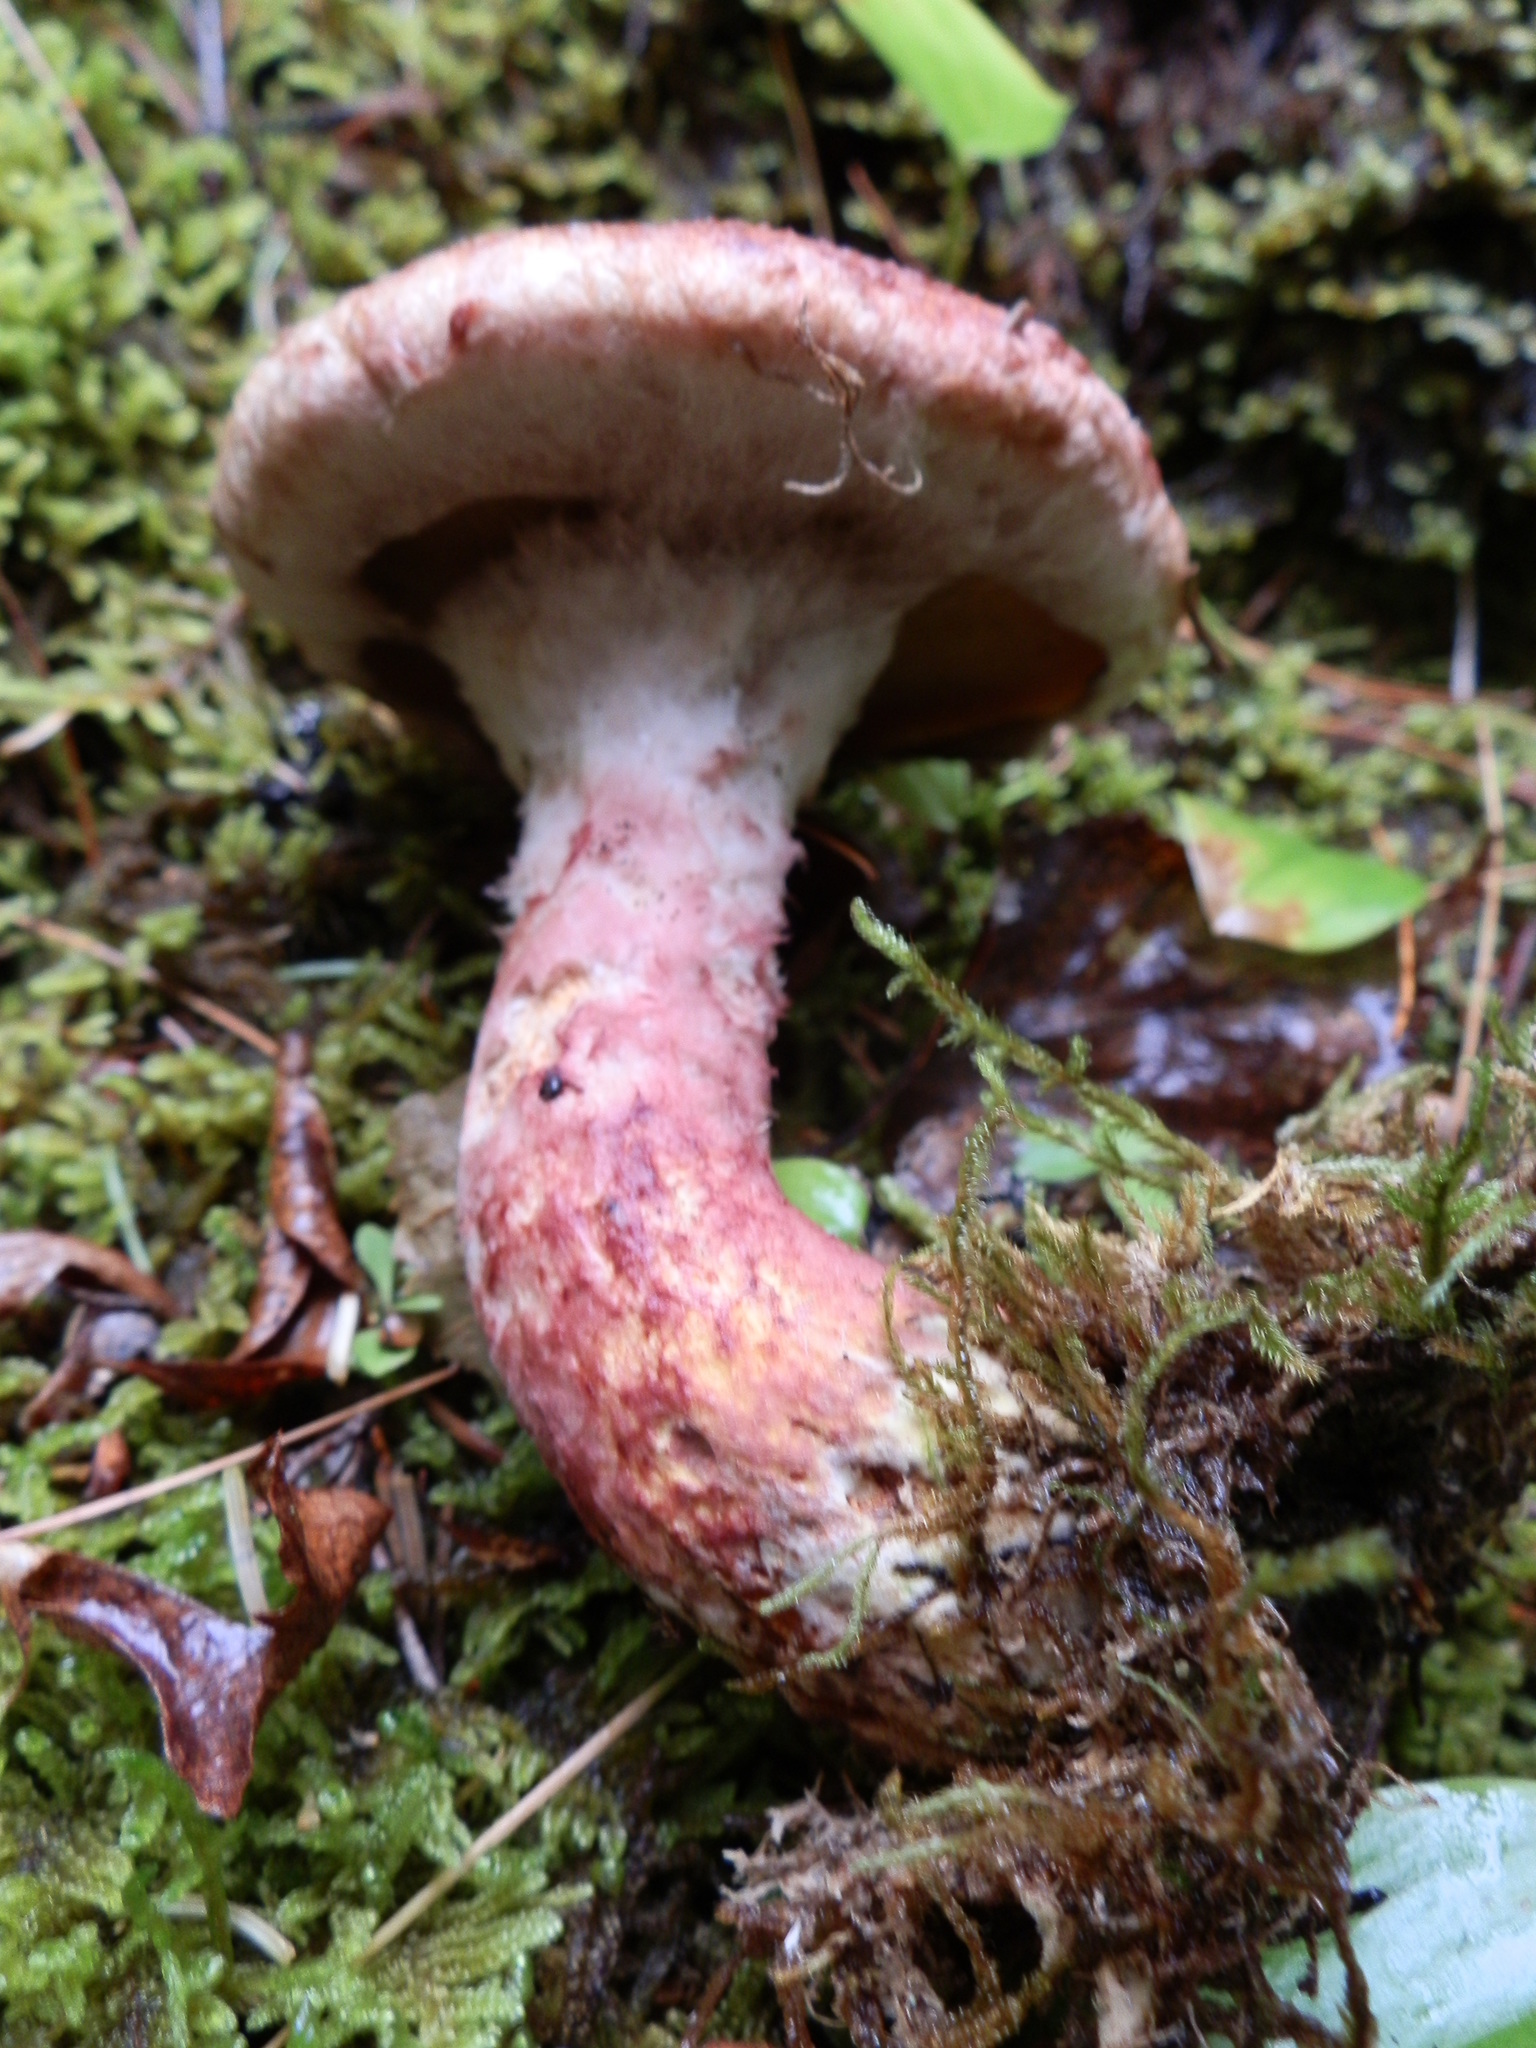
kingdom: Fungi
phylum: Basidiomycota
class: Agaricomycetes
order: Boletales
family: Suillaceae
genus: Suillus
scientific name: Suillus spraguei
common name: Painted suillus
